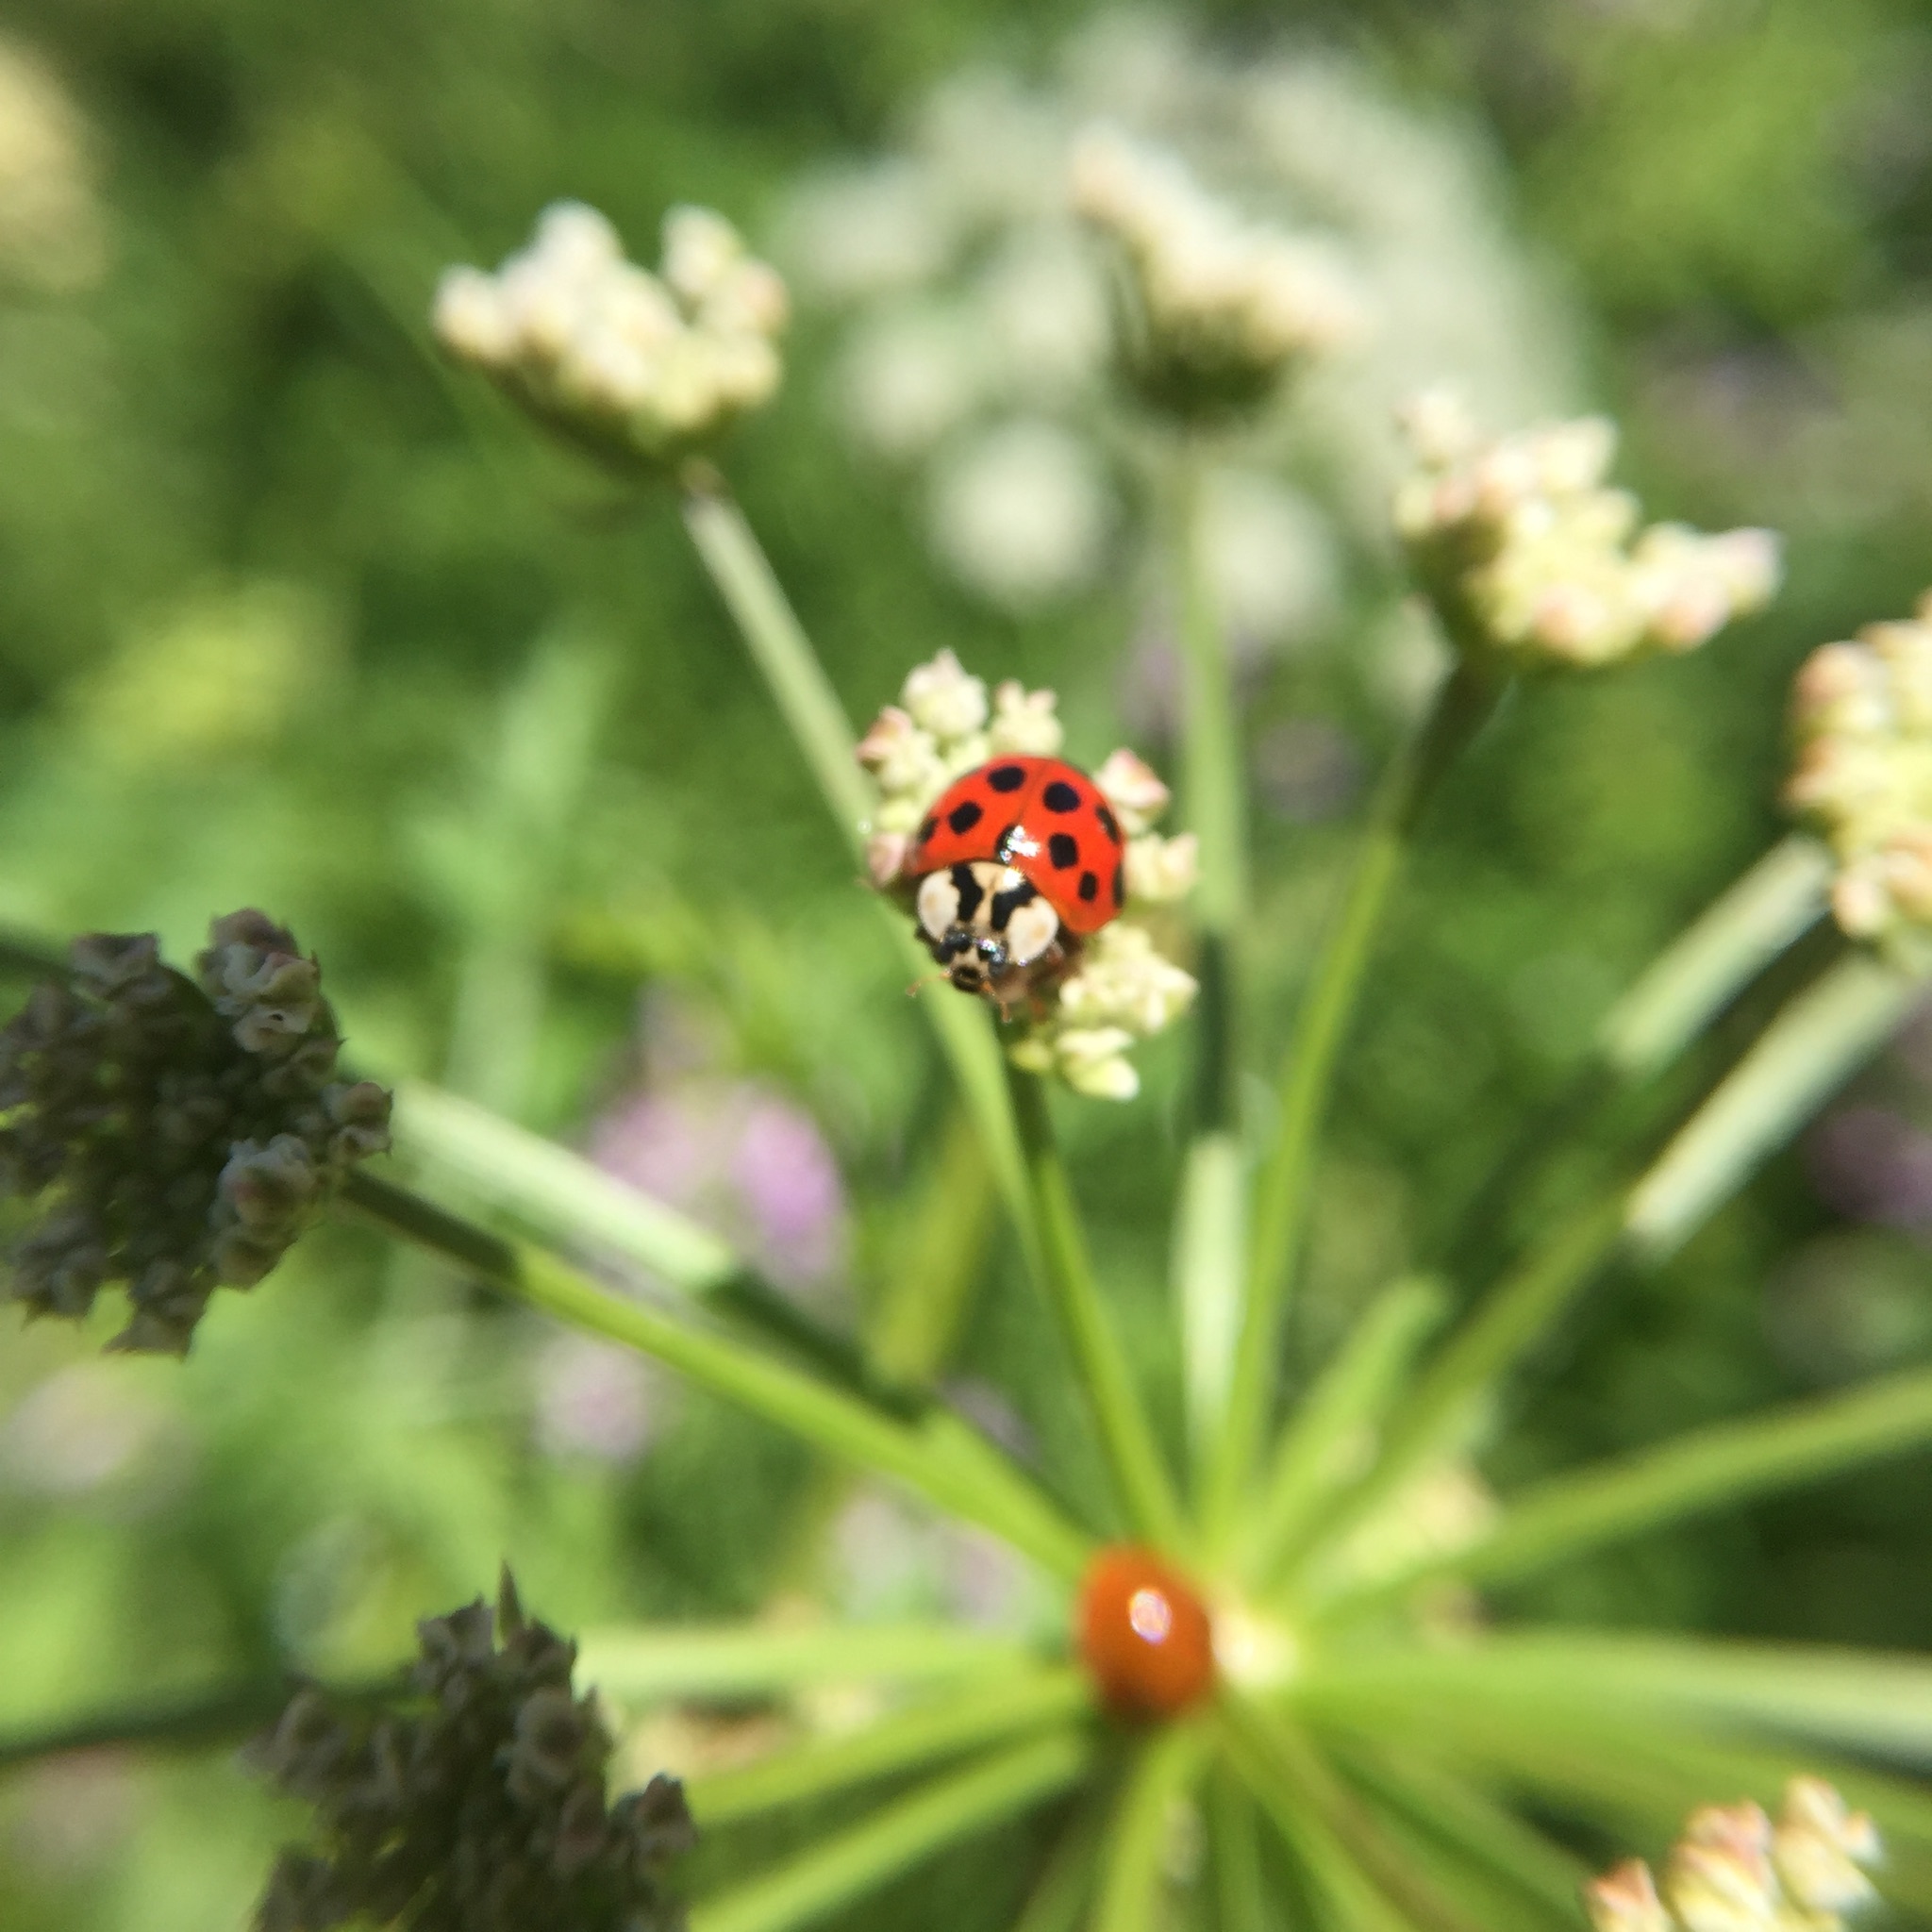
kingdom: Animalia
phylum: Arthropoda
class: Insecta
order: Coleoptera
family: Coccinellidae
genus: Harmonia
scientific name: Harmonia axyridis
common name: Harlequin ladybird
